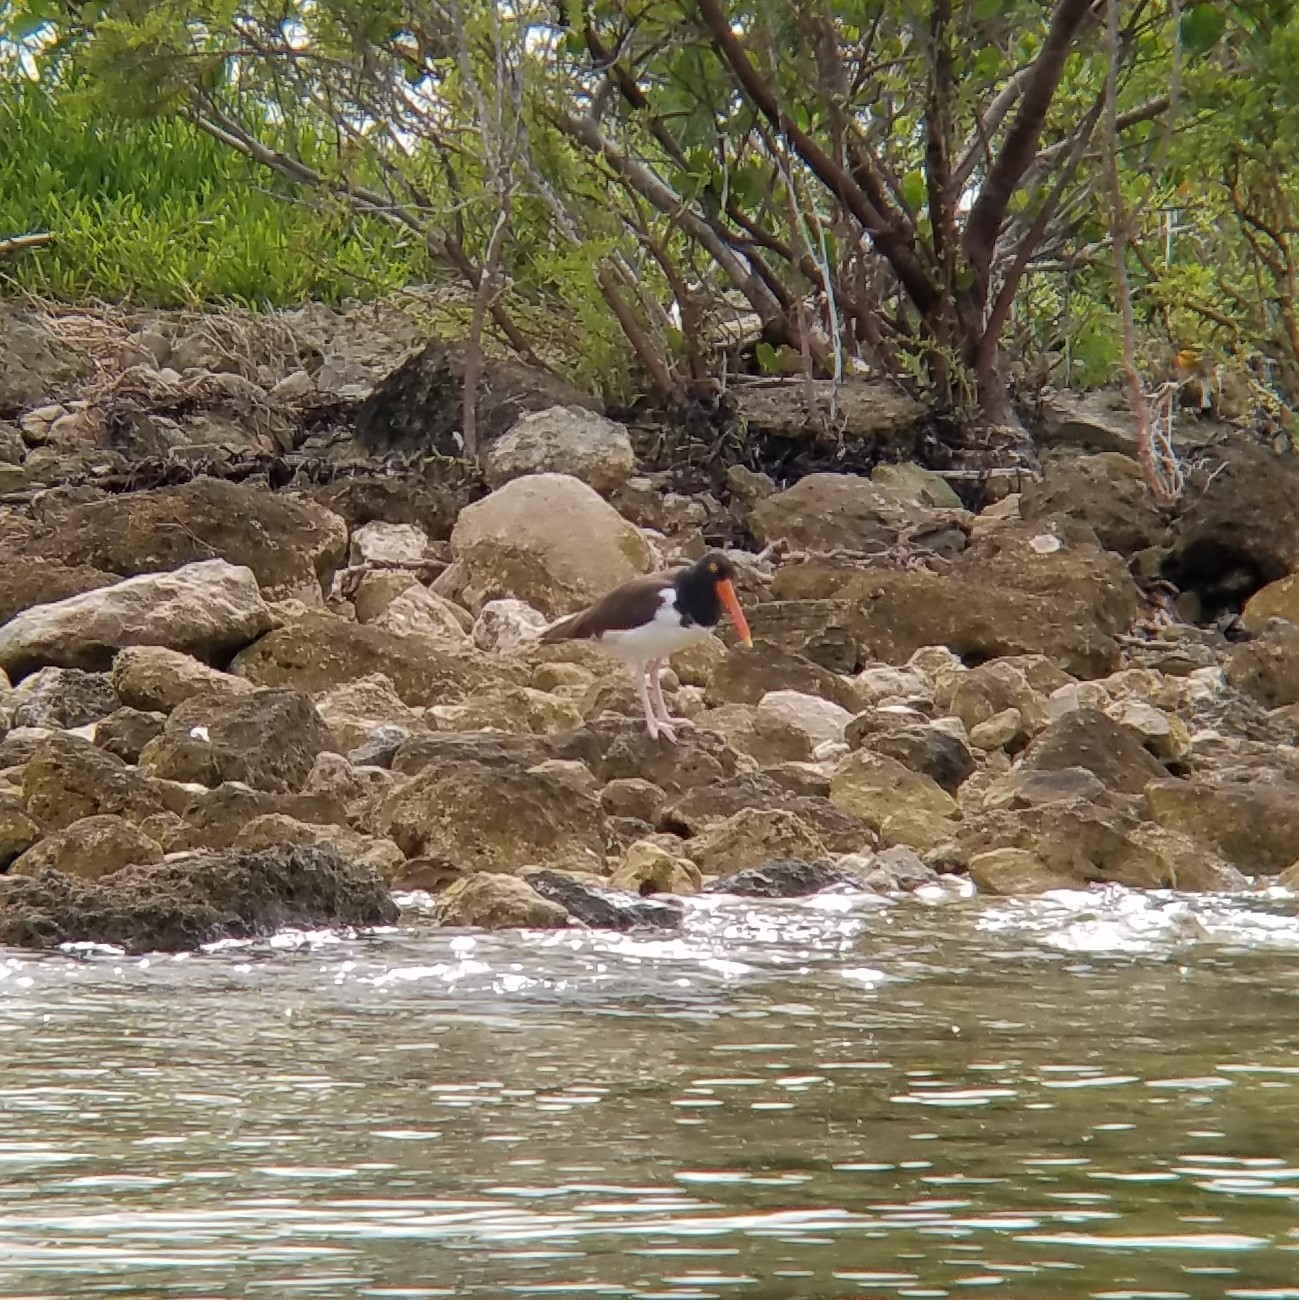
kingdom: Animalia
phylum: Chordata
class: Aves
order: Charadriiformes
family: Haematopodidae
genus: Haematopus
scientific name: Haematopus palliatus
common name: American oystercatcher
